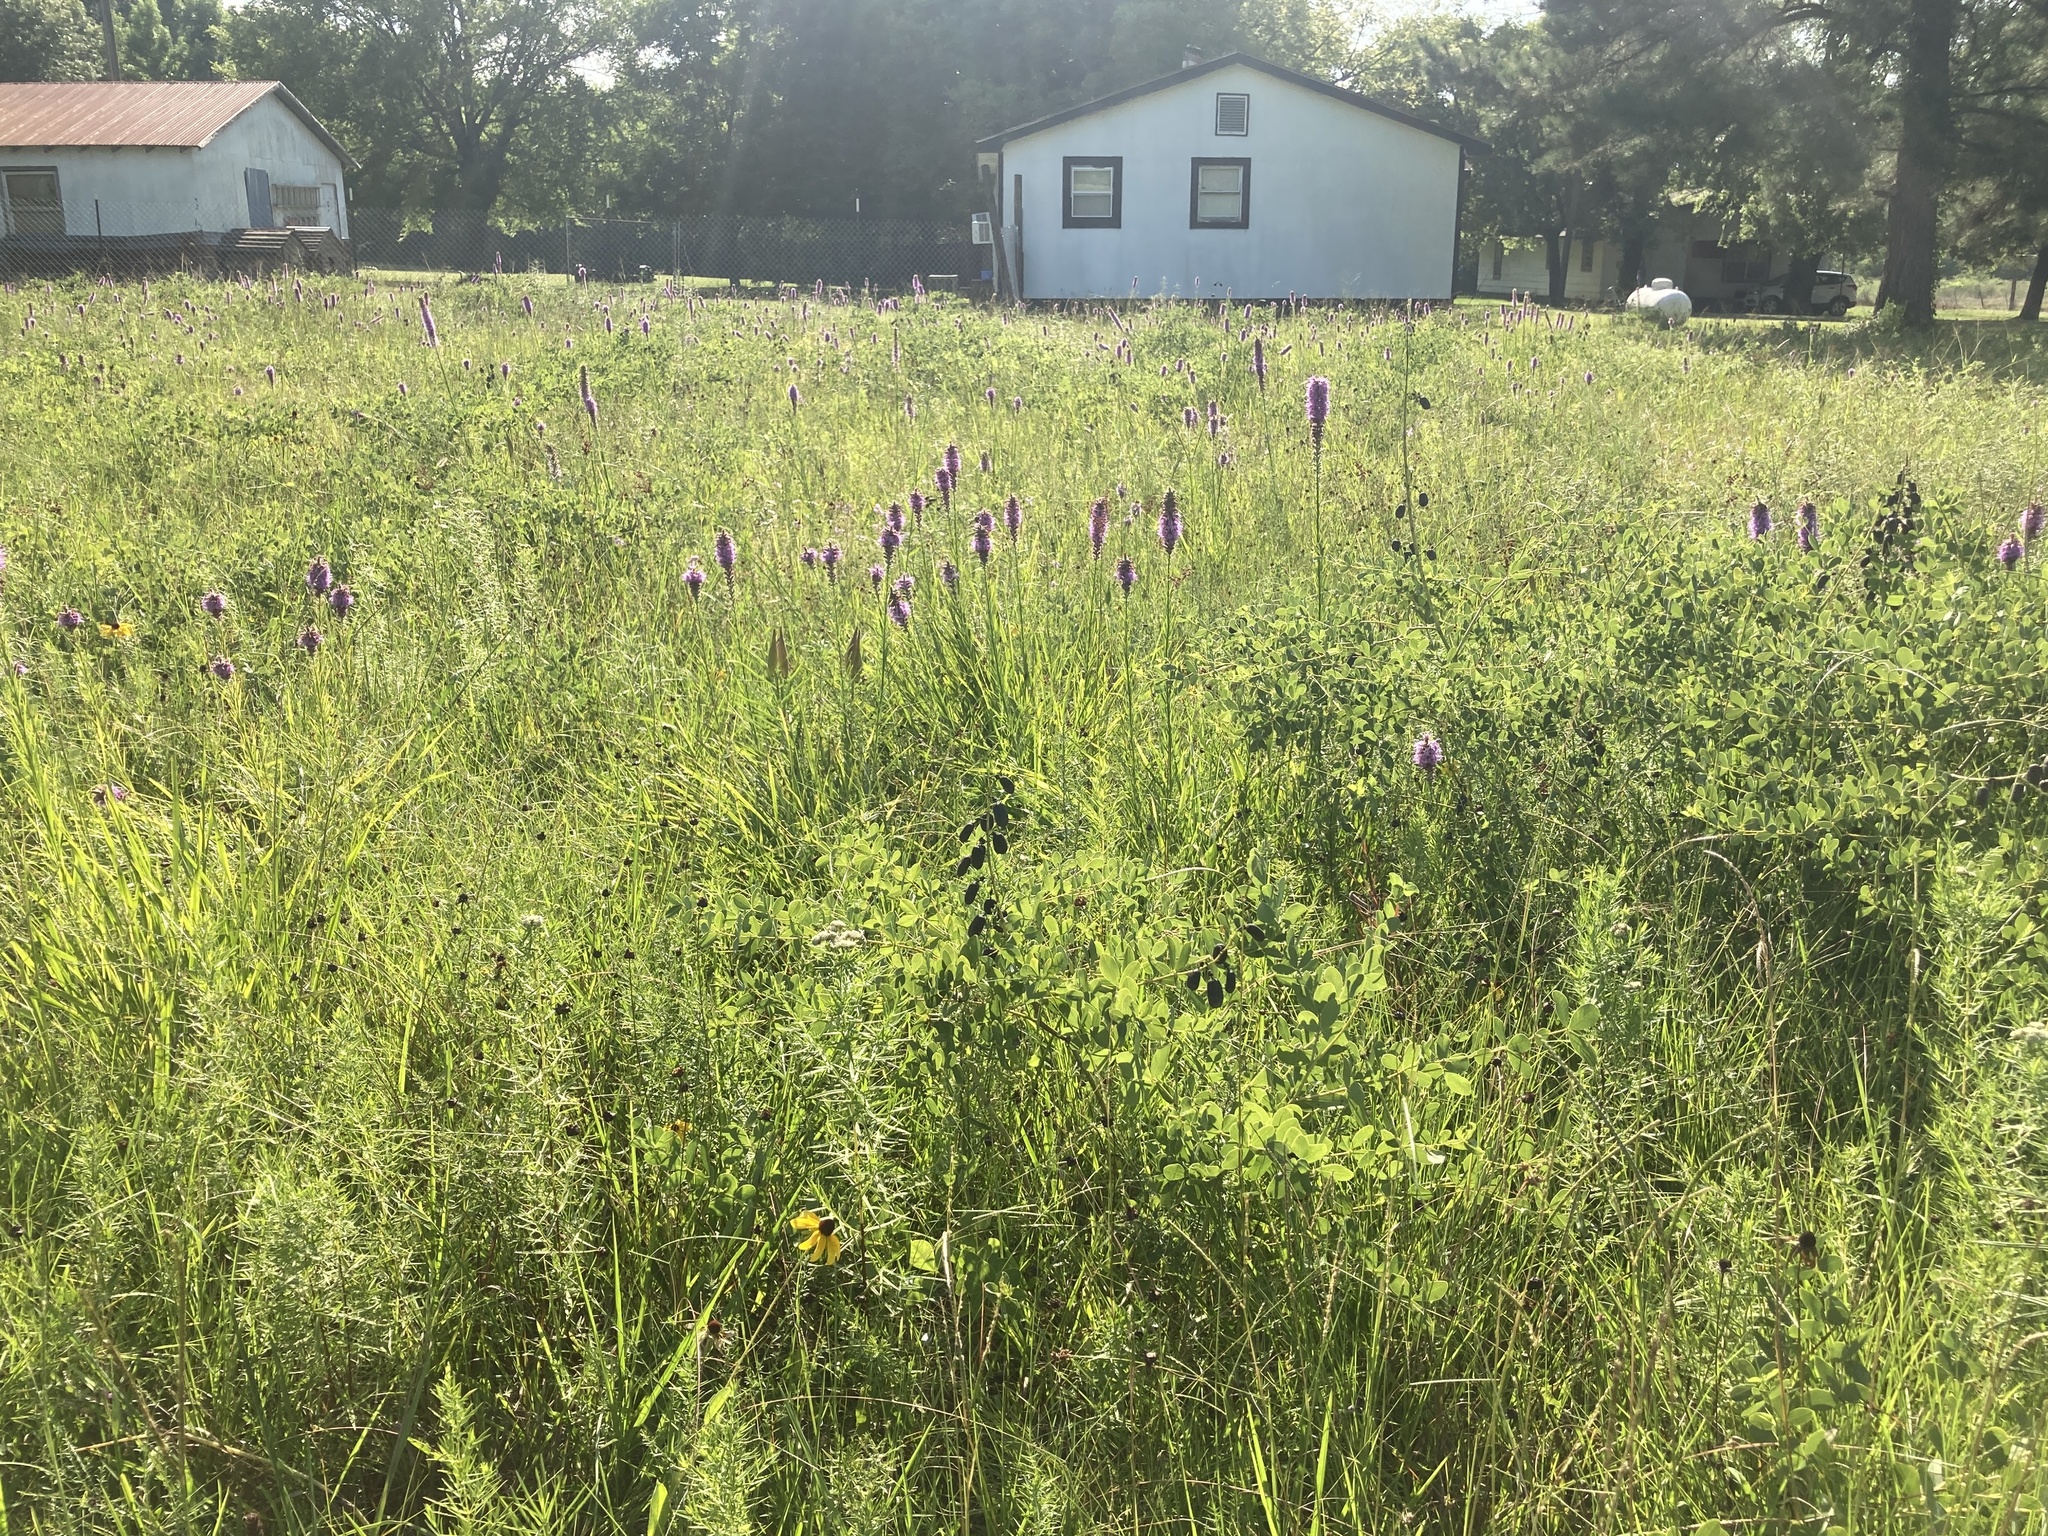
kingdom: Plantae
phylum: Tracheophyta
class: Magnoliopsida
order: Asterales
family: Asteraceae
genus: Liatris
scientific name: Liatris pycnostachya
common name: Cattail gayfeather
